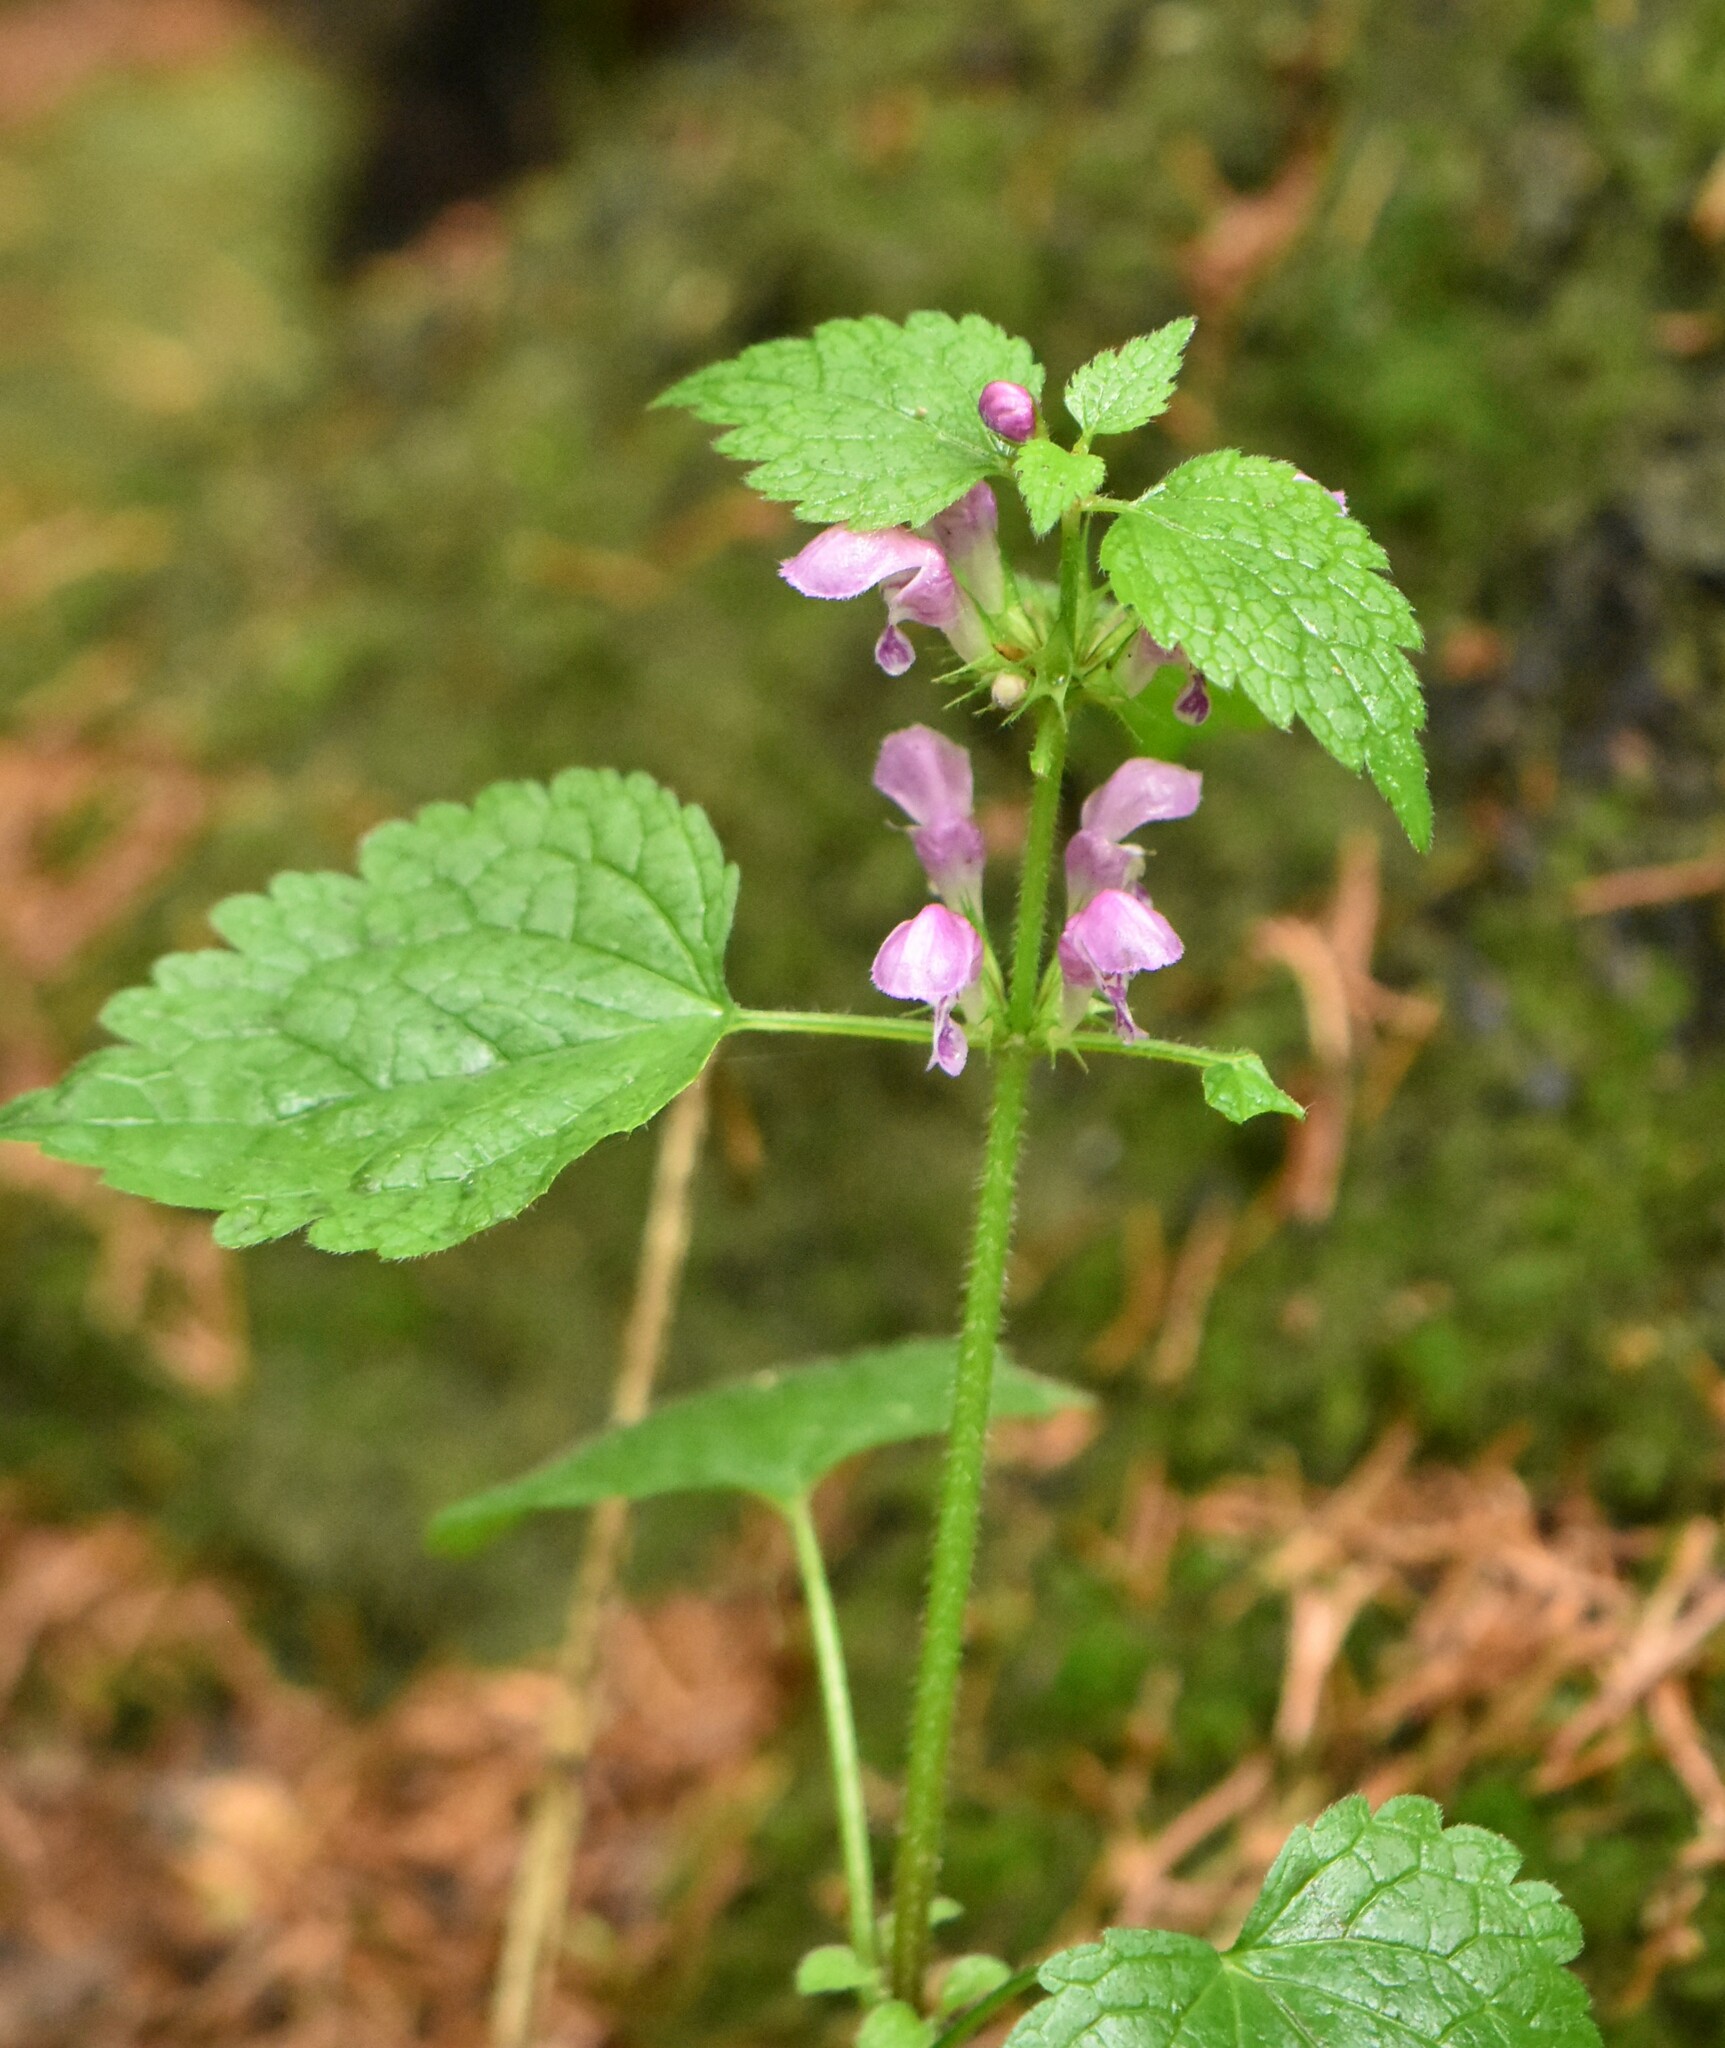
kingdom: Plantae
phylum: Tracheophyta
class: Magnoliopsida
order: Lamiales
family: Lamiaceae
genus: Lamium
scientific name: Lamium maculatum
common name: Spotted dead-nettle
